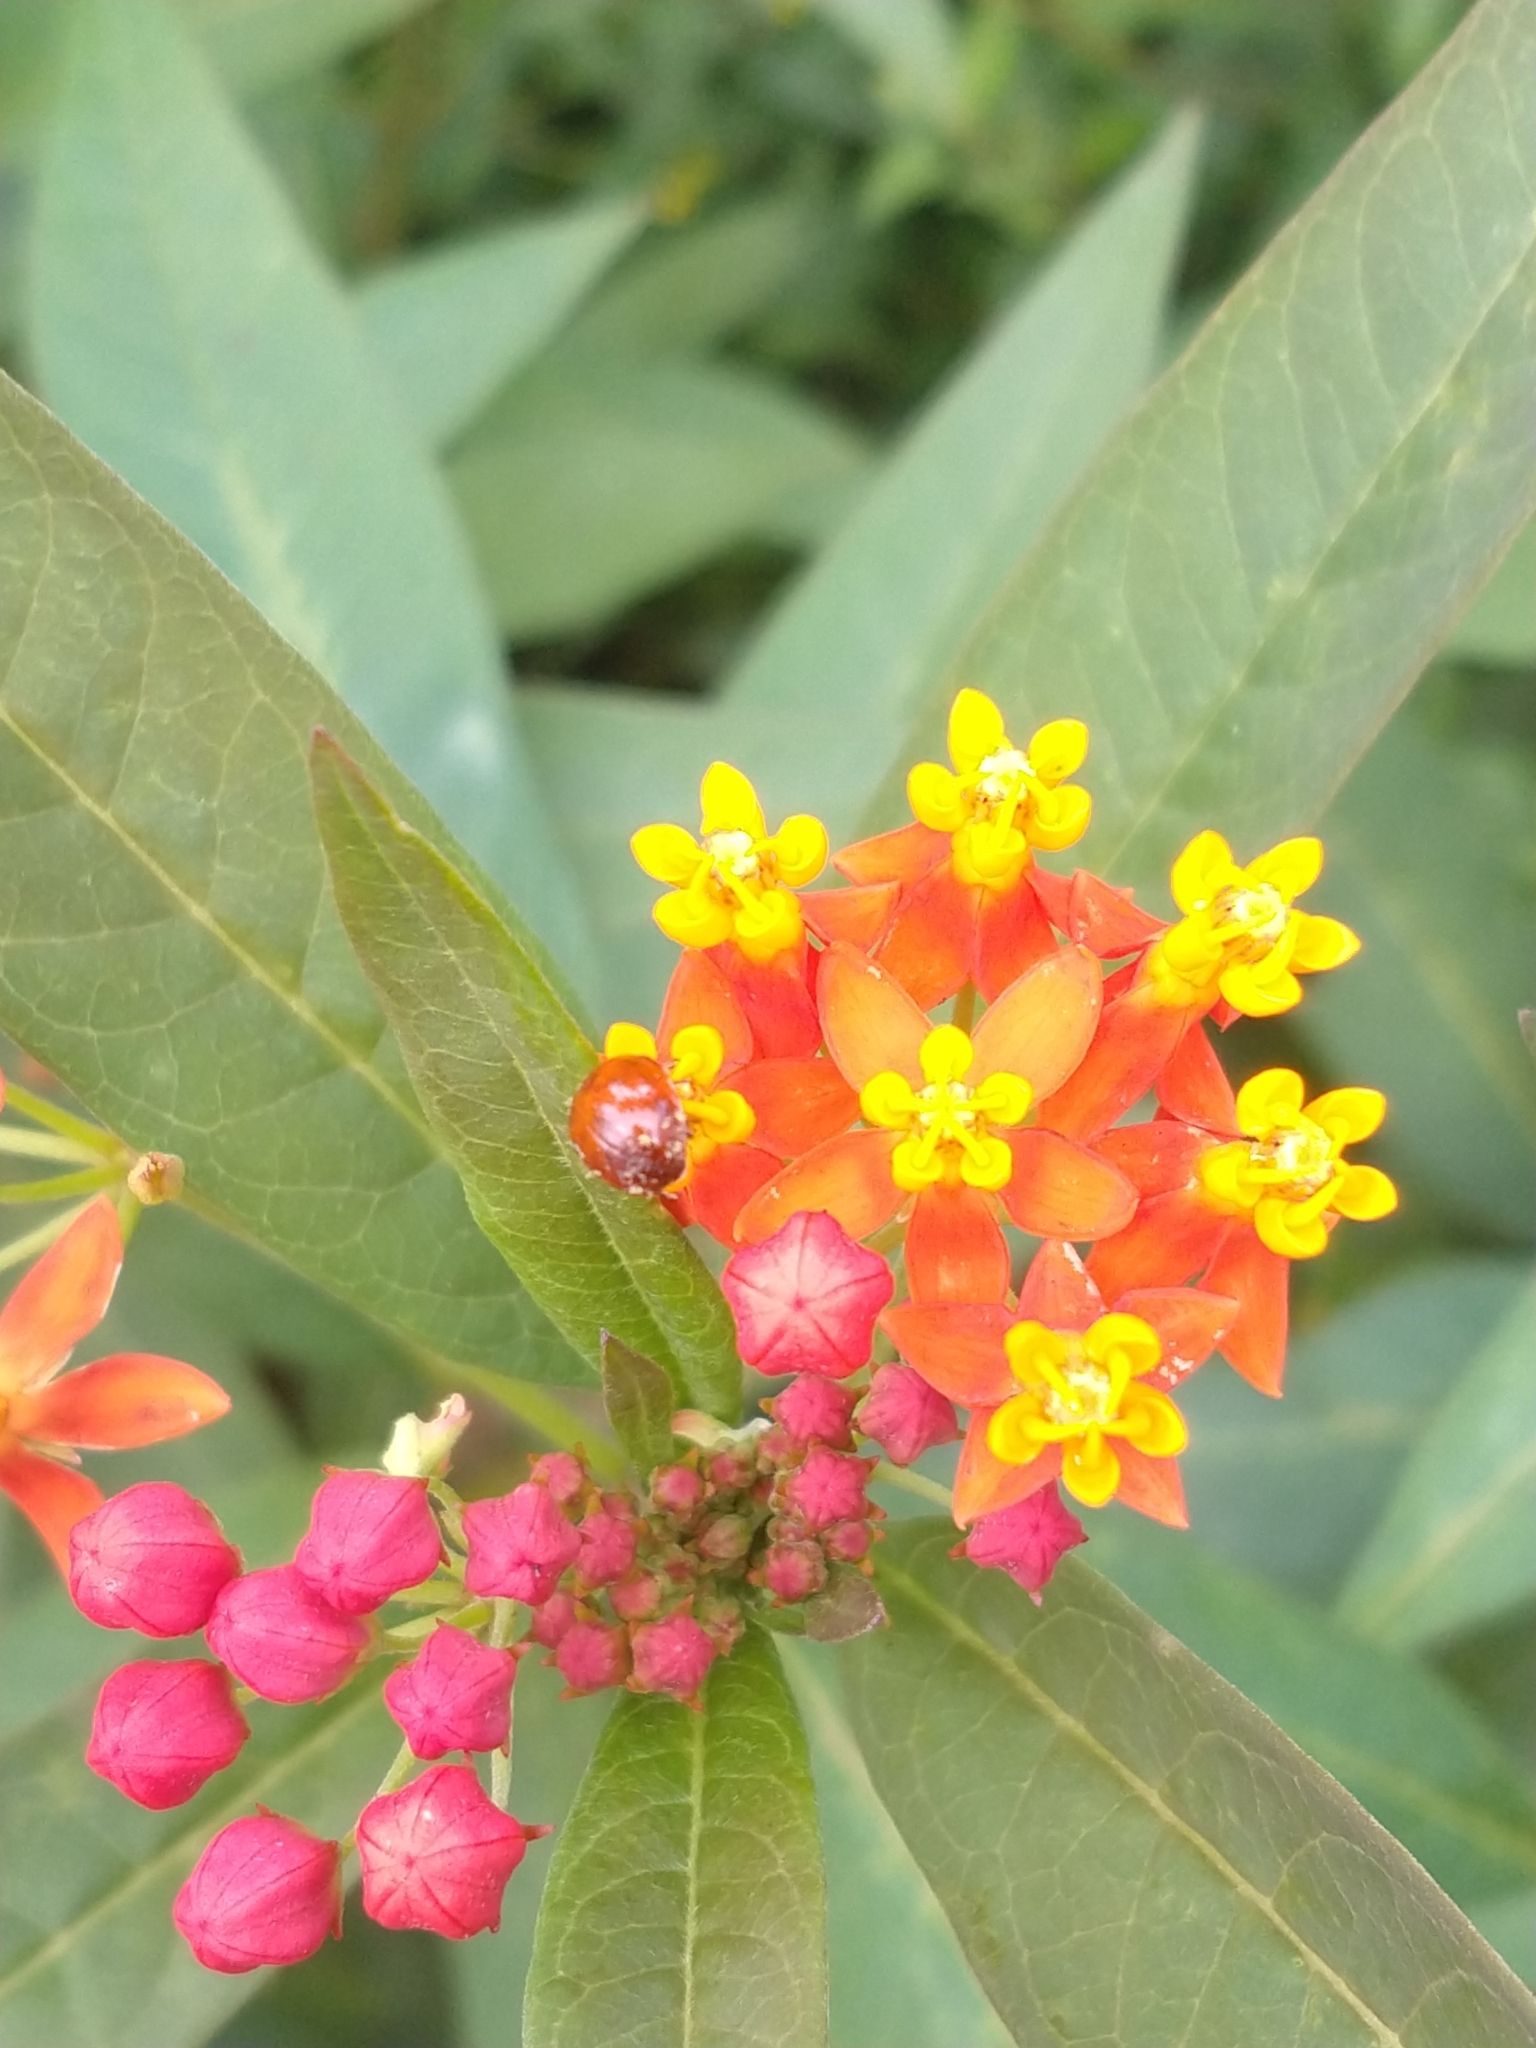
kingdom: Plantae
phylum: Tracheophyta
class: Magnoliopsida
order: Gentianales
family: Apocynaceae
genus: Asclepias
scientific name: Asclepias curassavica
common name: Bloodflower
